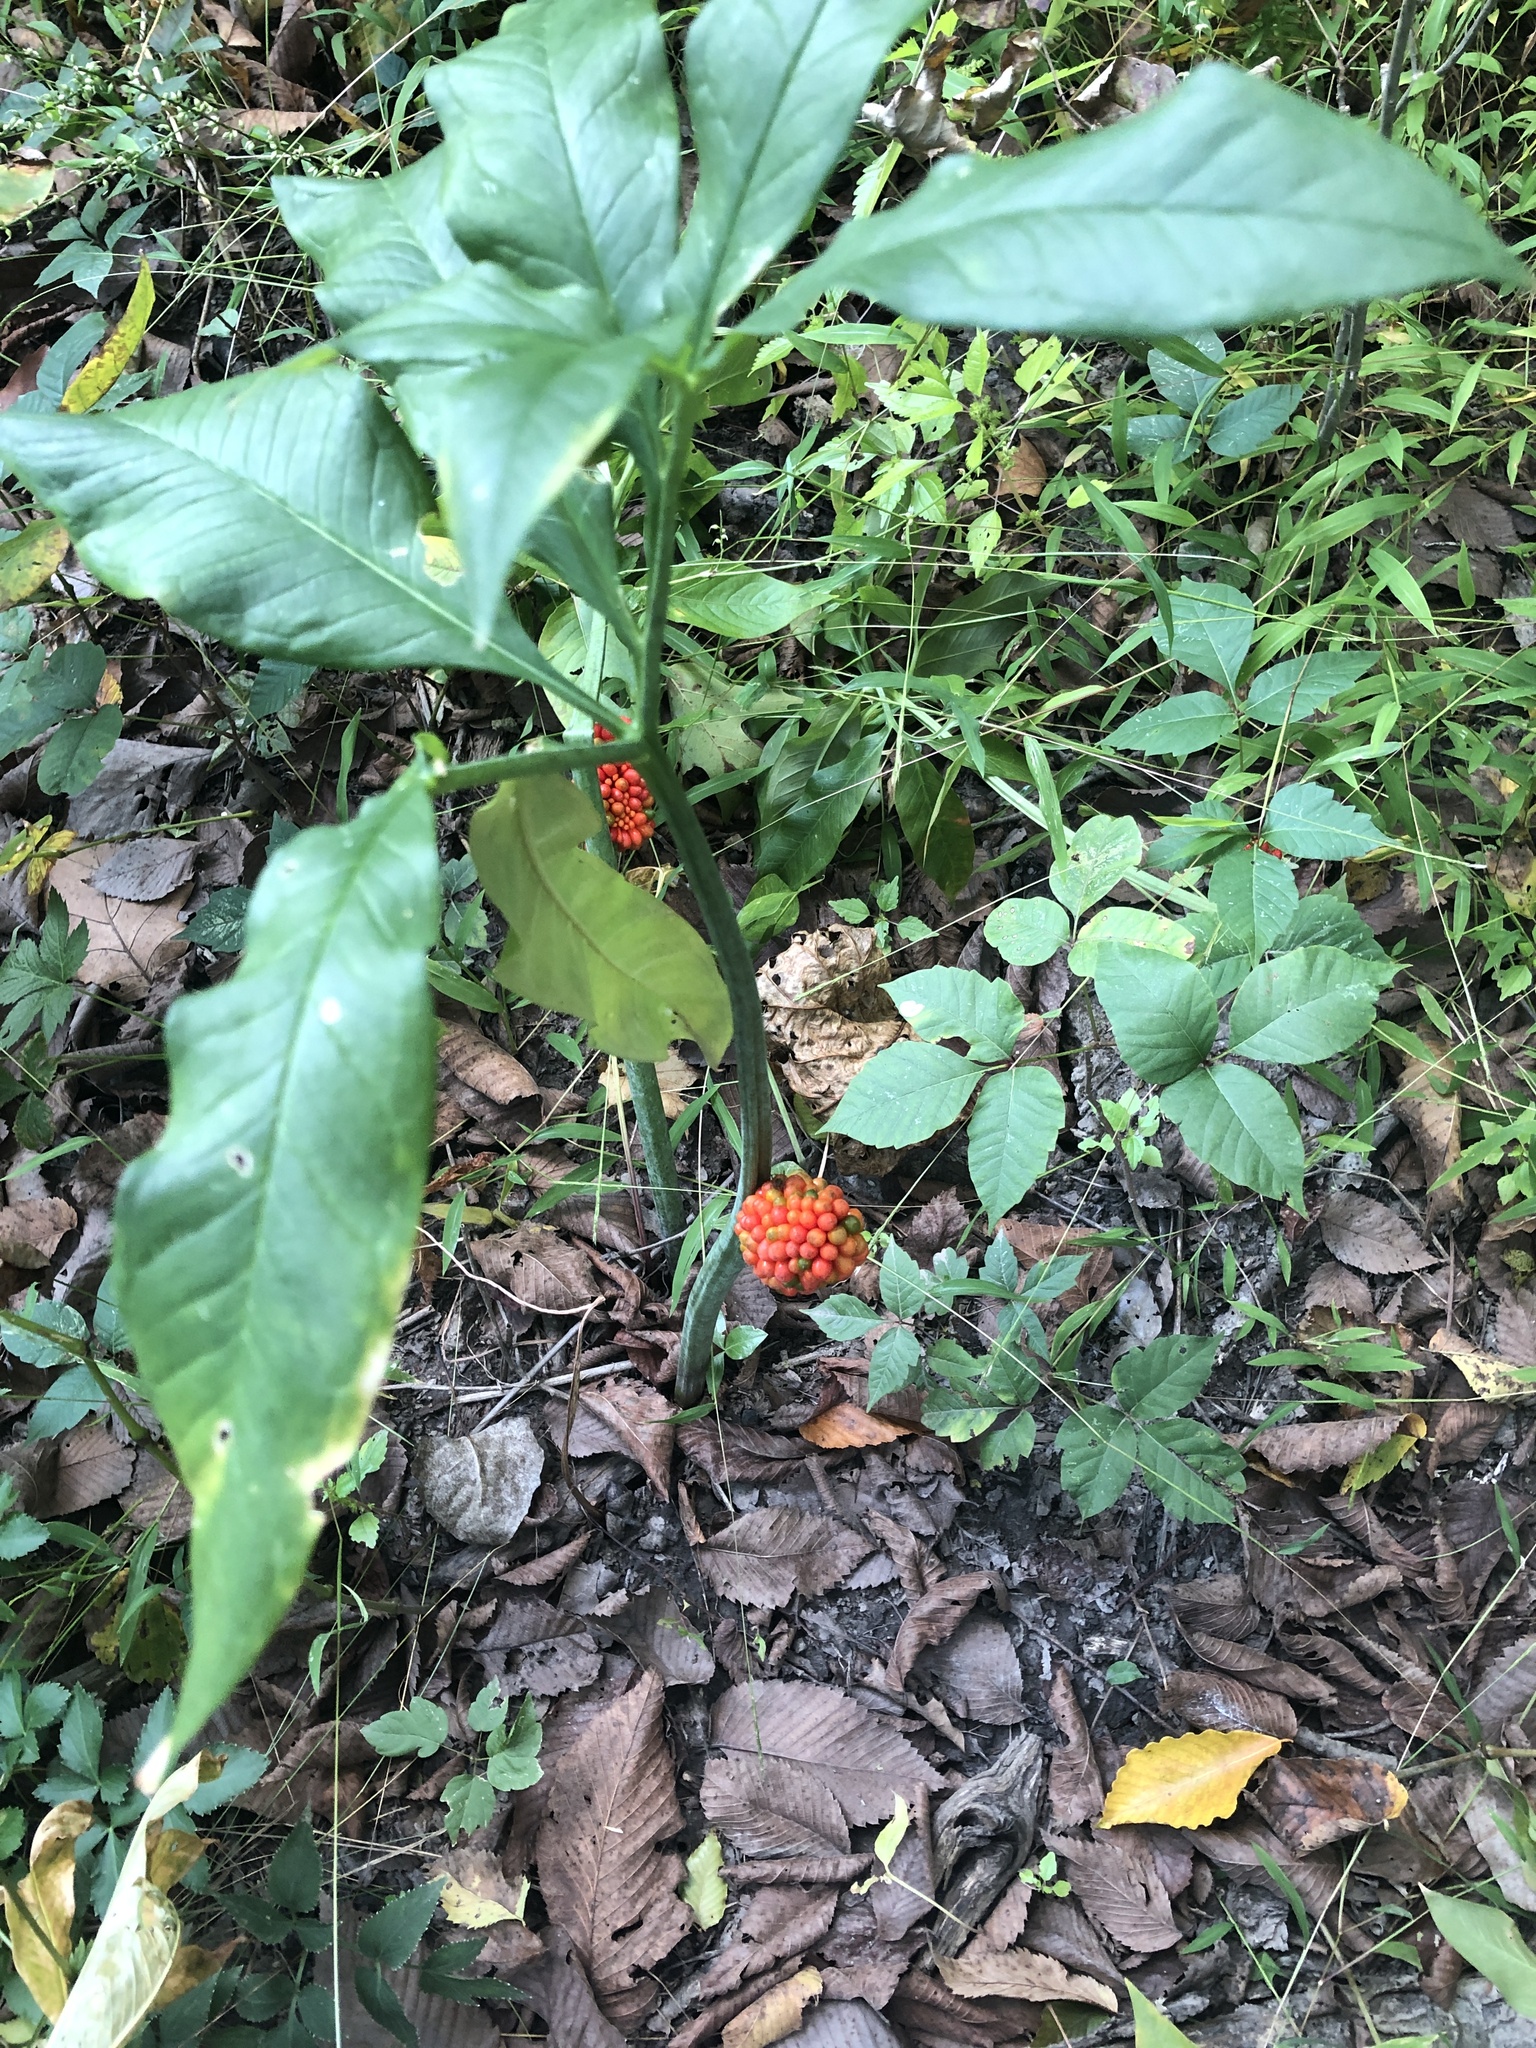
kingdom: Plantae
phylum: Tracheophyta
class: Liliopsida
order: Alismatales
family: Araceae
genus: Arisaema
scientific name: Arisaema triphyllum
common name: Jack-in-the-pulpit
